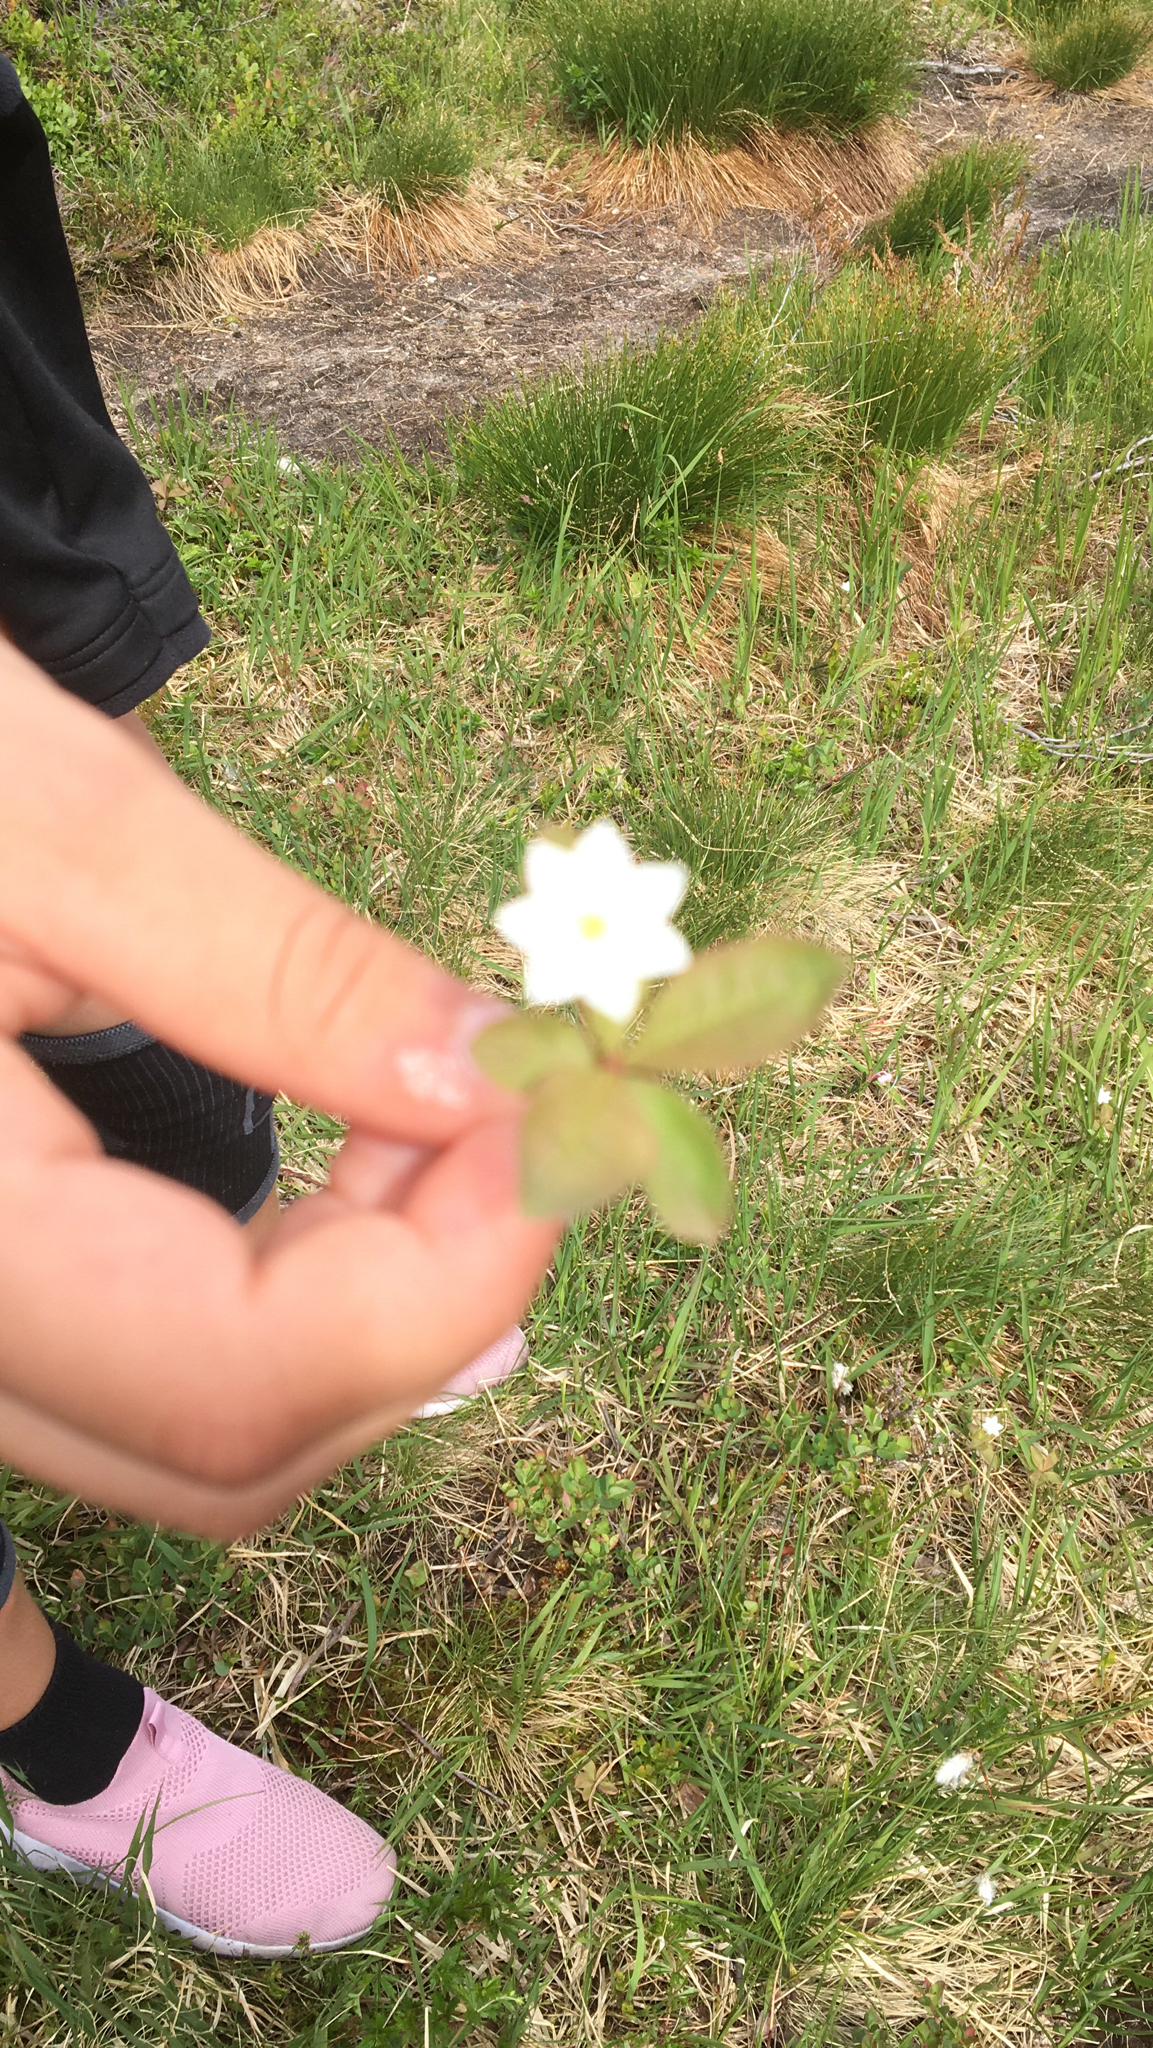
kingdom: Plantae
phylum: Tracheophyta
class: Magnoliopsida
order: Ericales
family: Primulaceae
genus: Lysimachia
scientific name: Lysimachia europaea
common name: Arctic starflower
